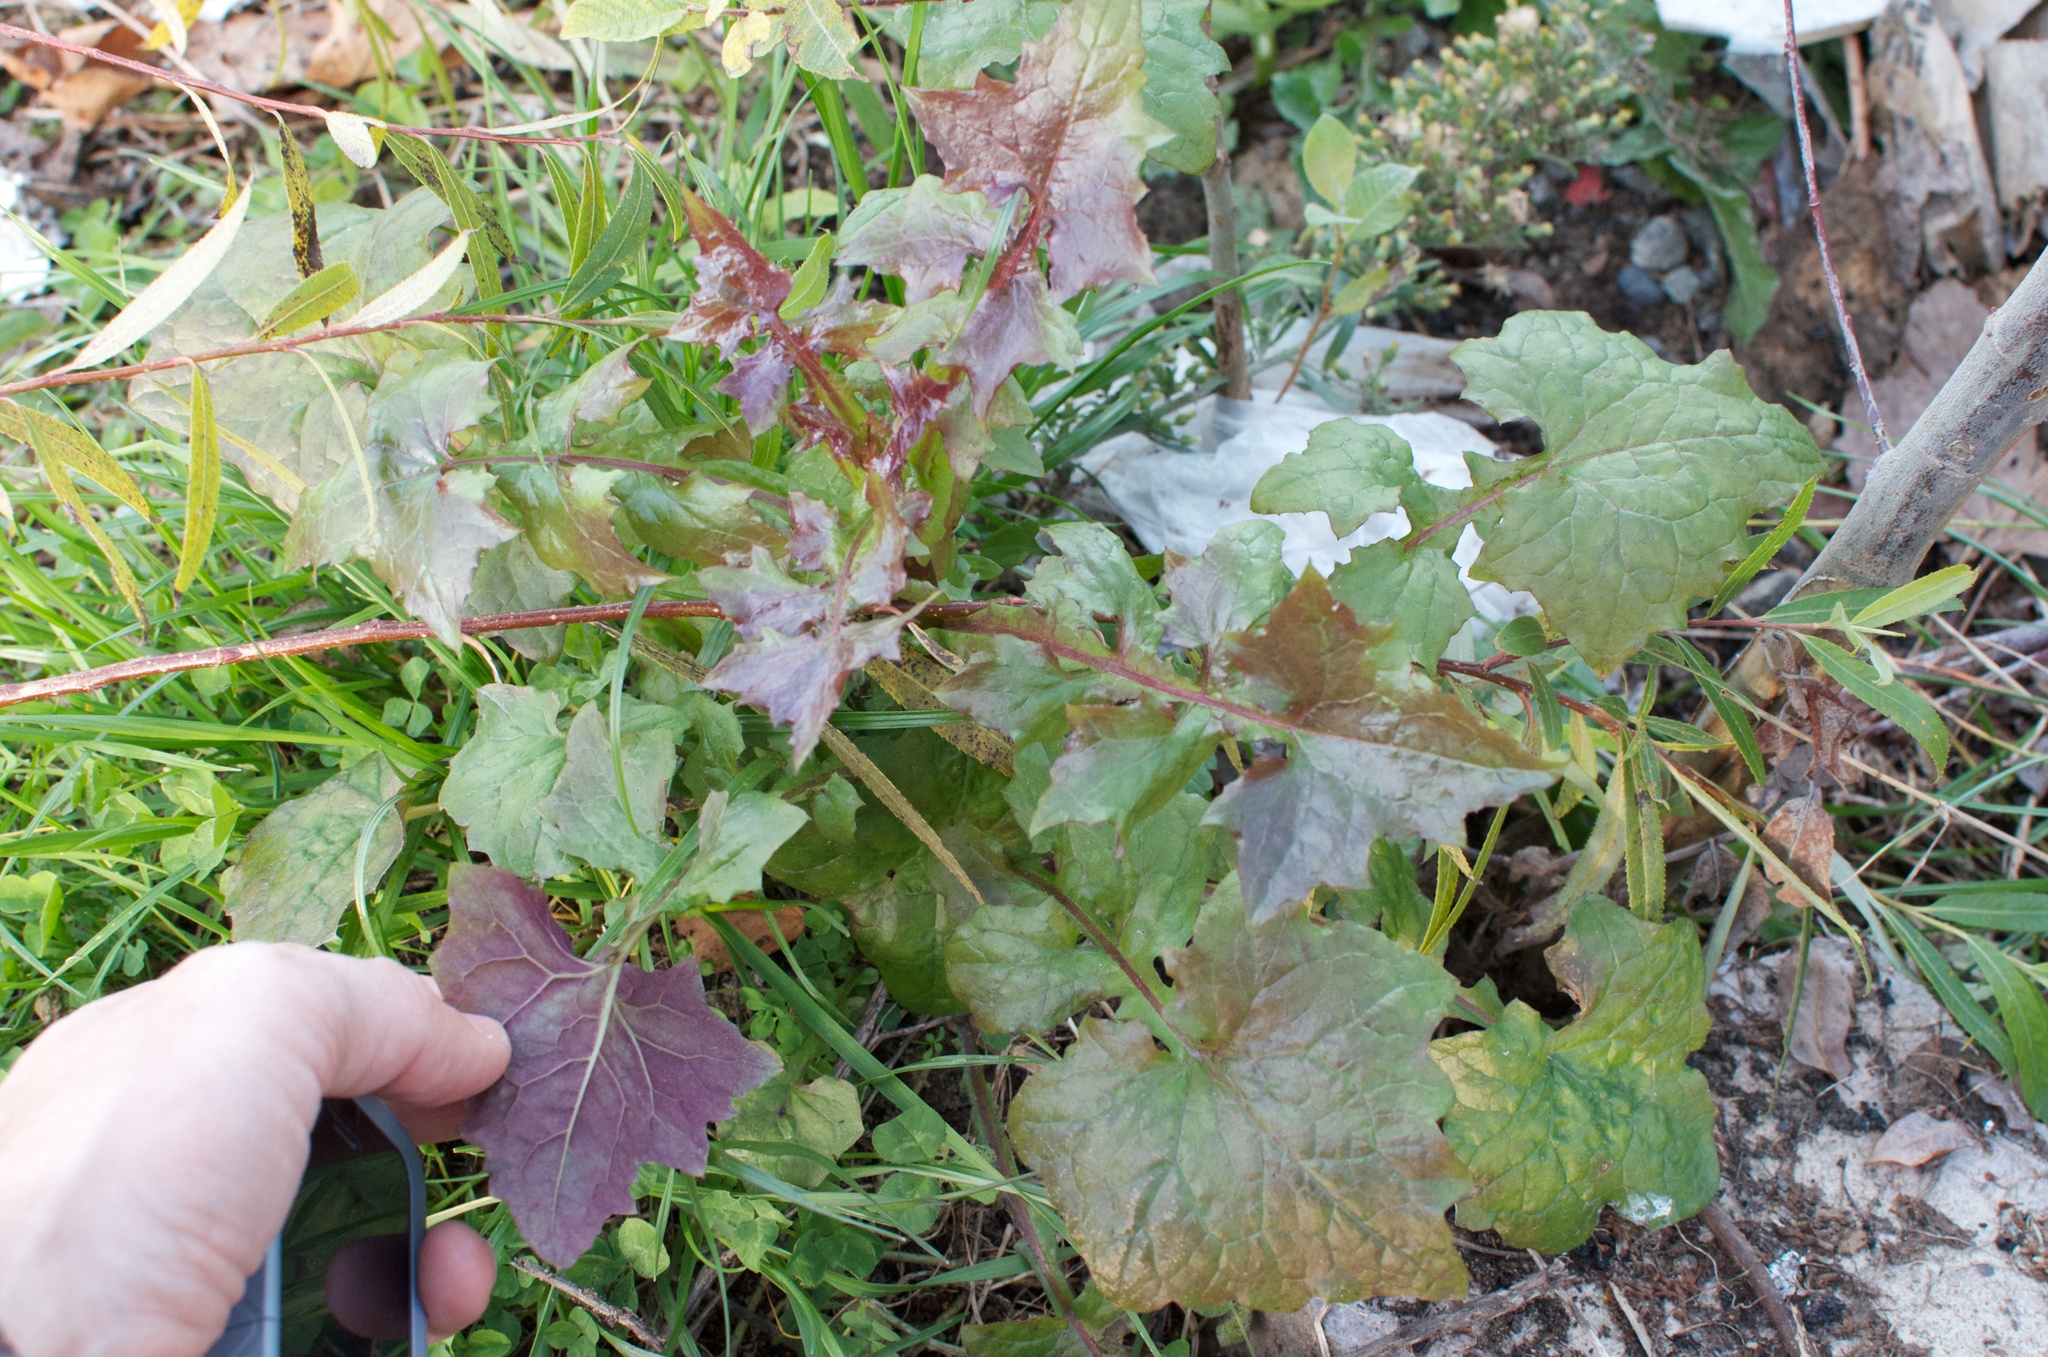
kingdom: Plantae
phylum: Tracheophyta
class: Magnoliopsida
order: Asterales
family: Asteraceae
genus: Mycelis
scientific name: Mycelis muralis
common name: Wall lettuce
